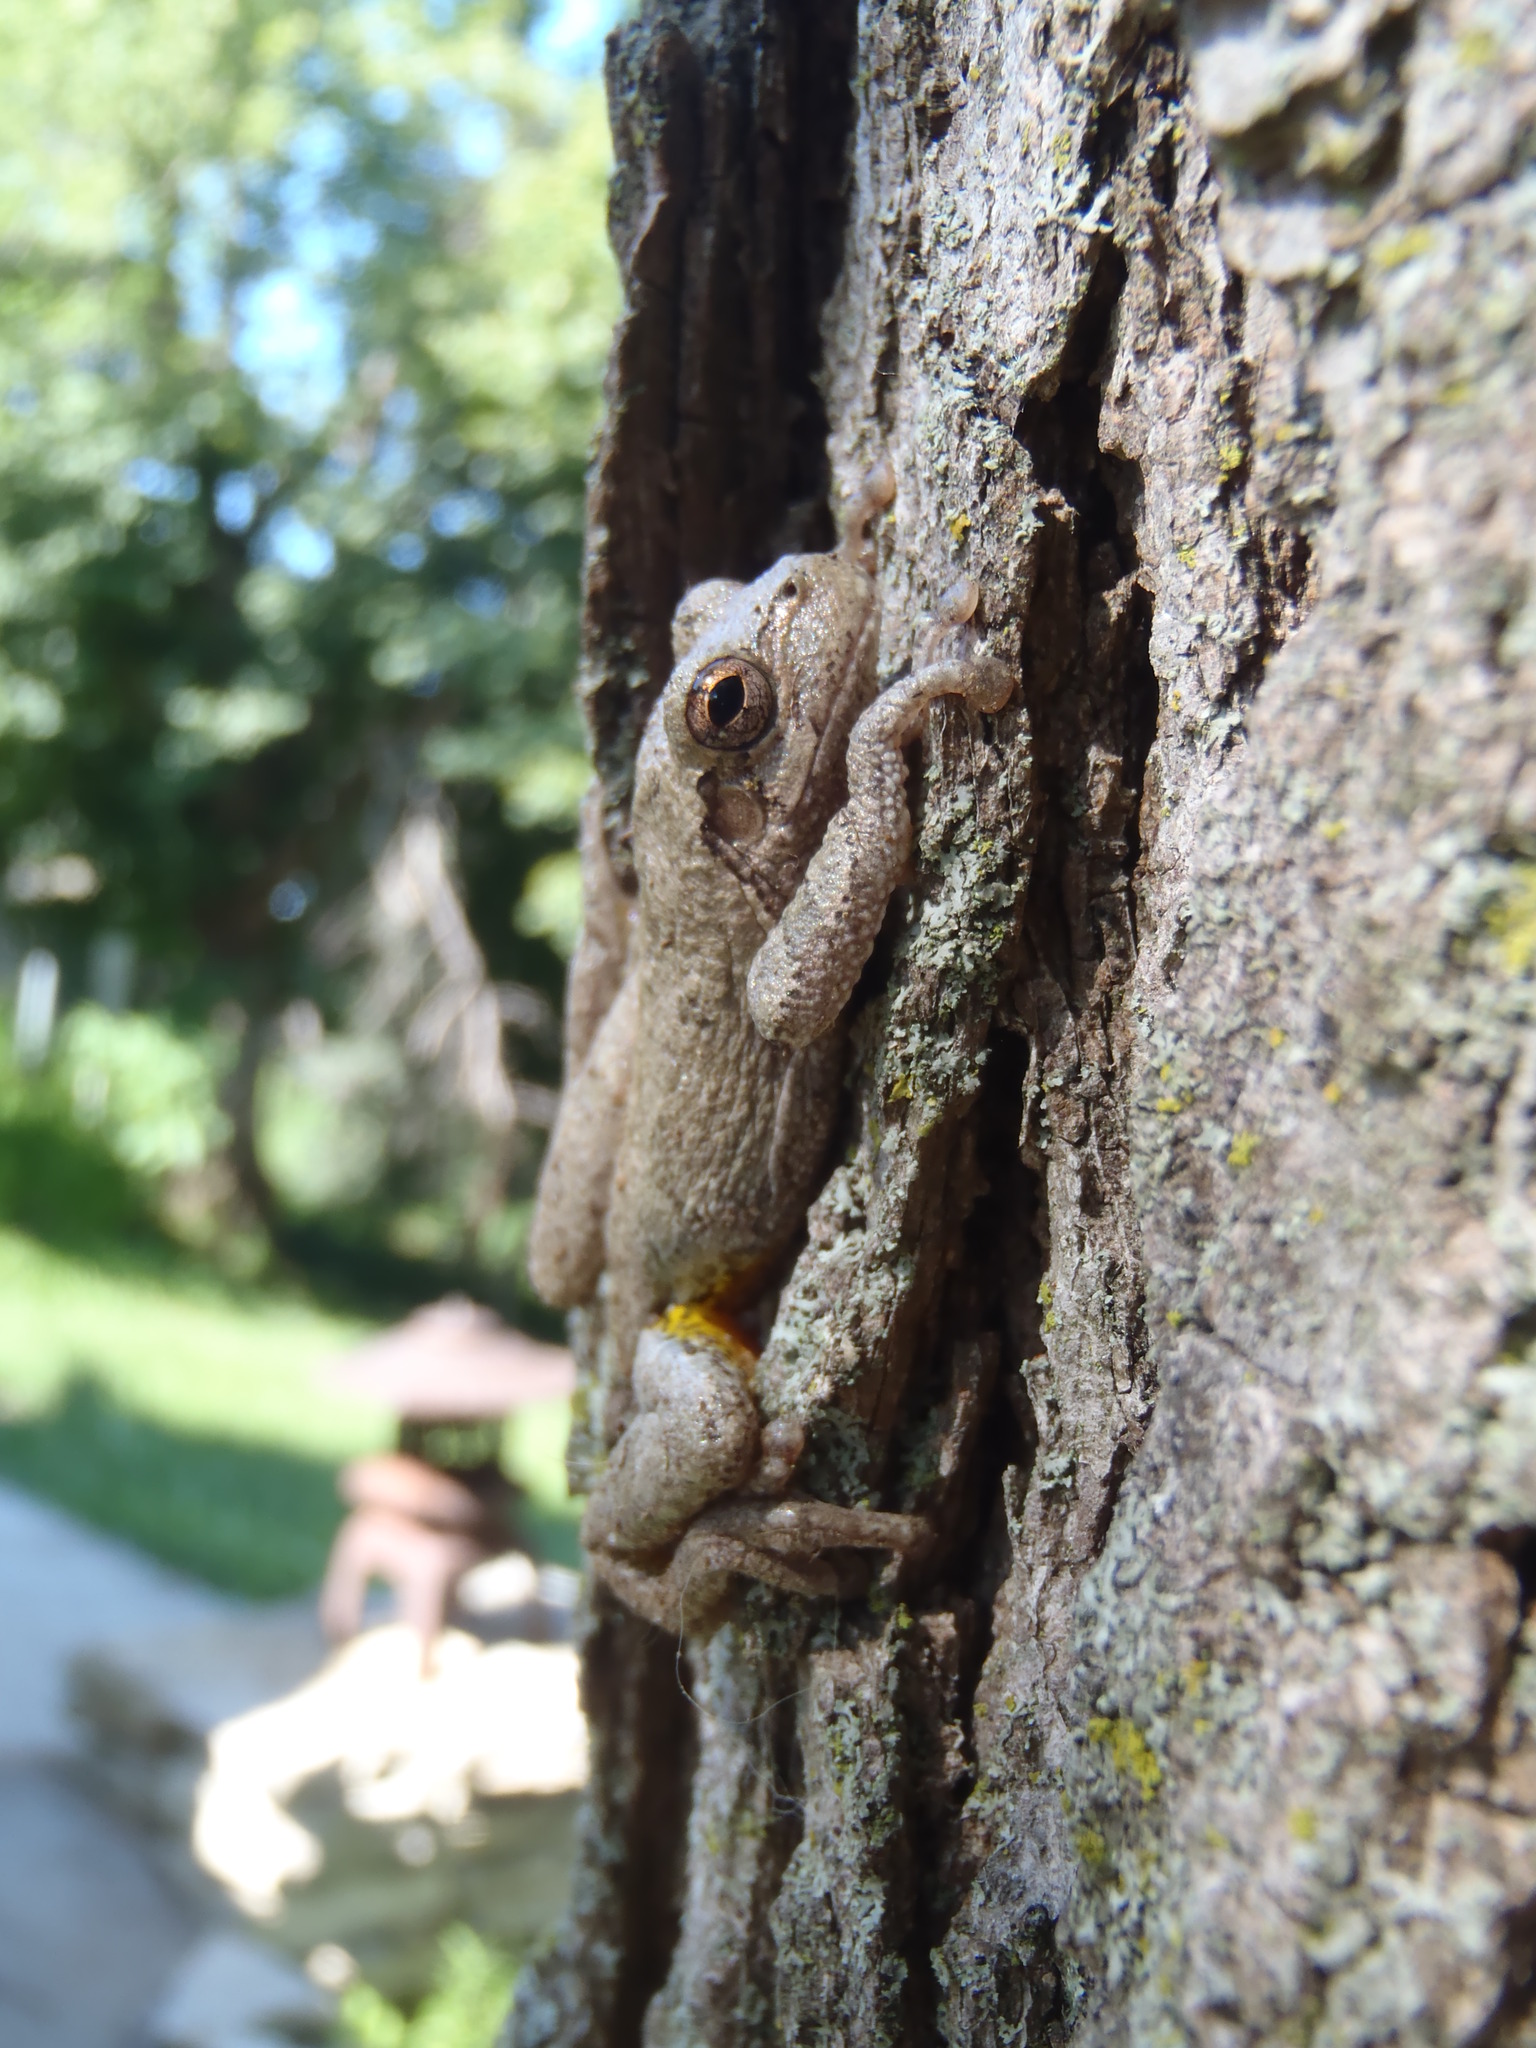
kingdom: Animalia
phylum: Chordata
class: Amphibia
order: Anura
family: Hylidae
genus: Dryophytes
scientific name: Dryophytes chrysoscelis
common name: Cope's gray treefrog
